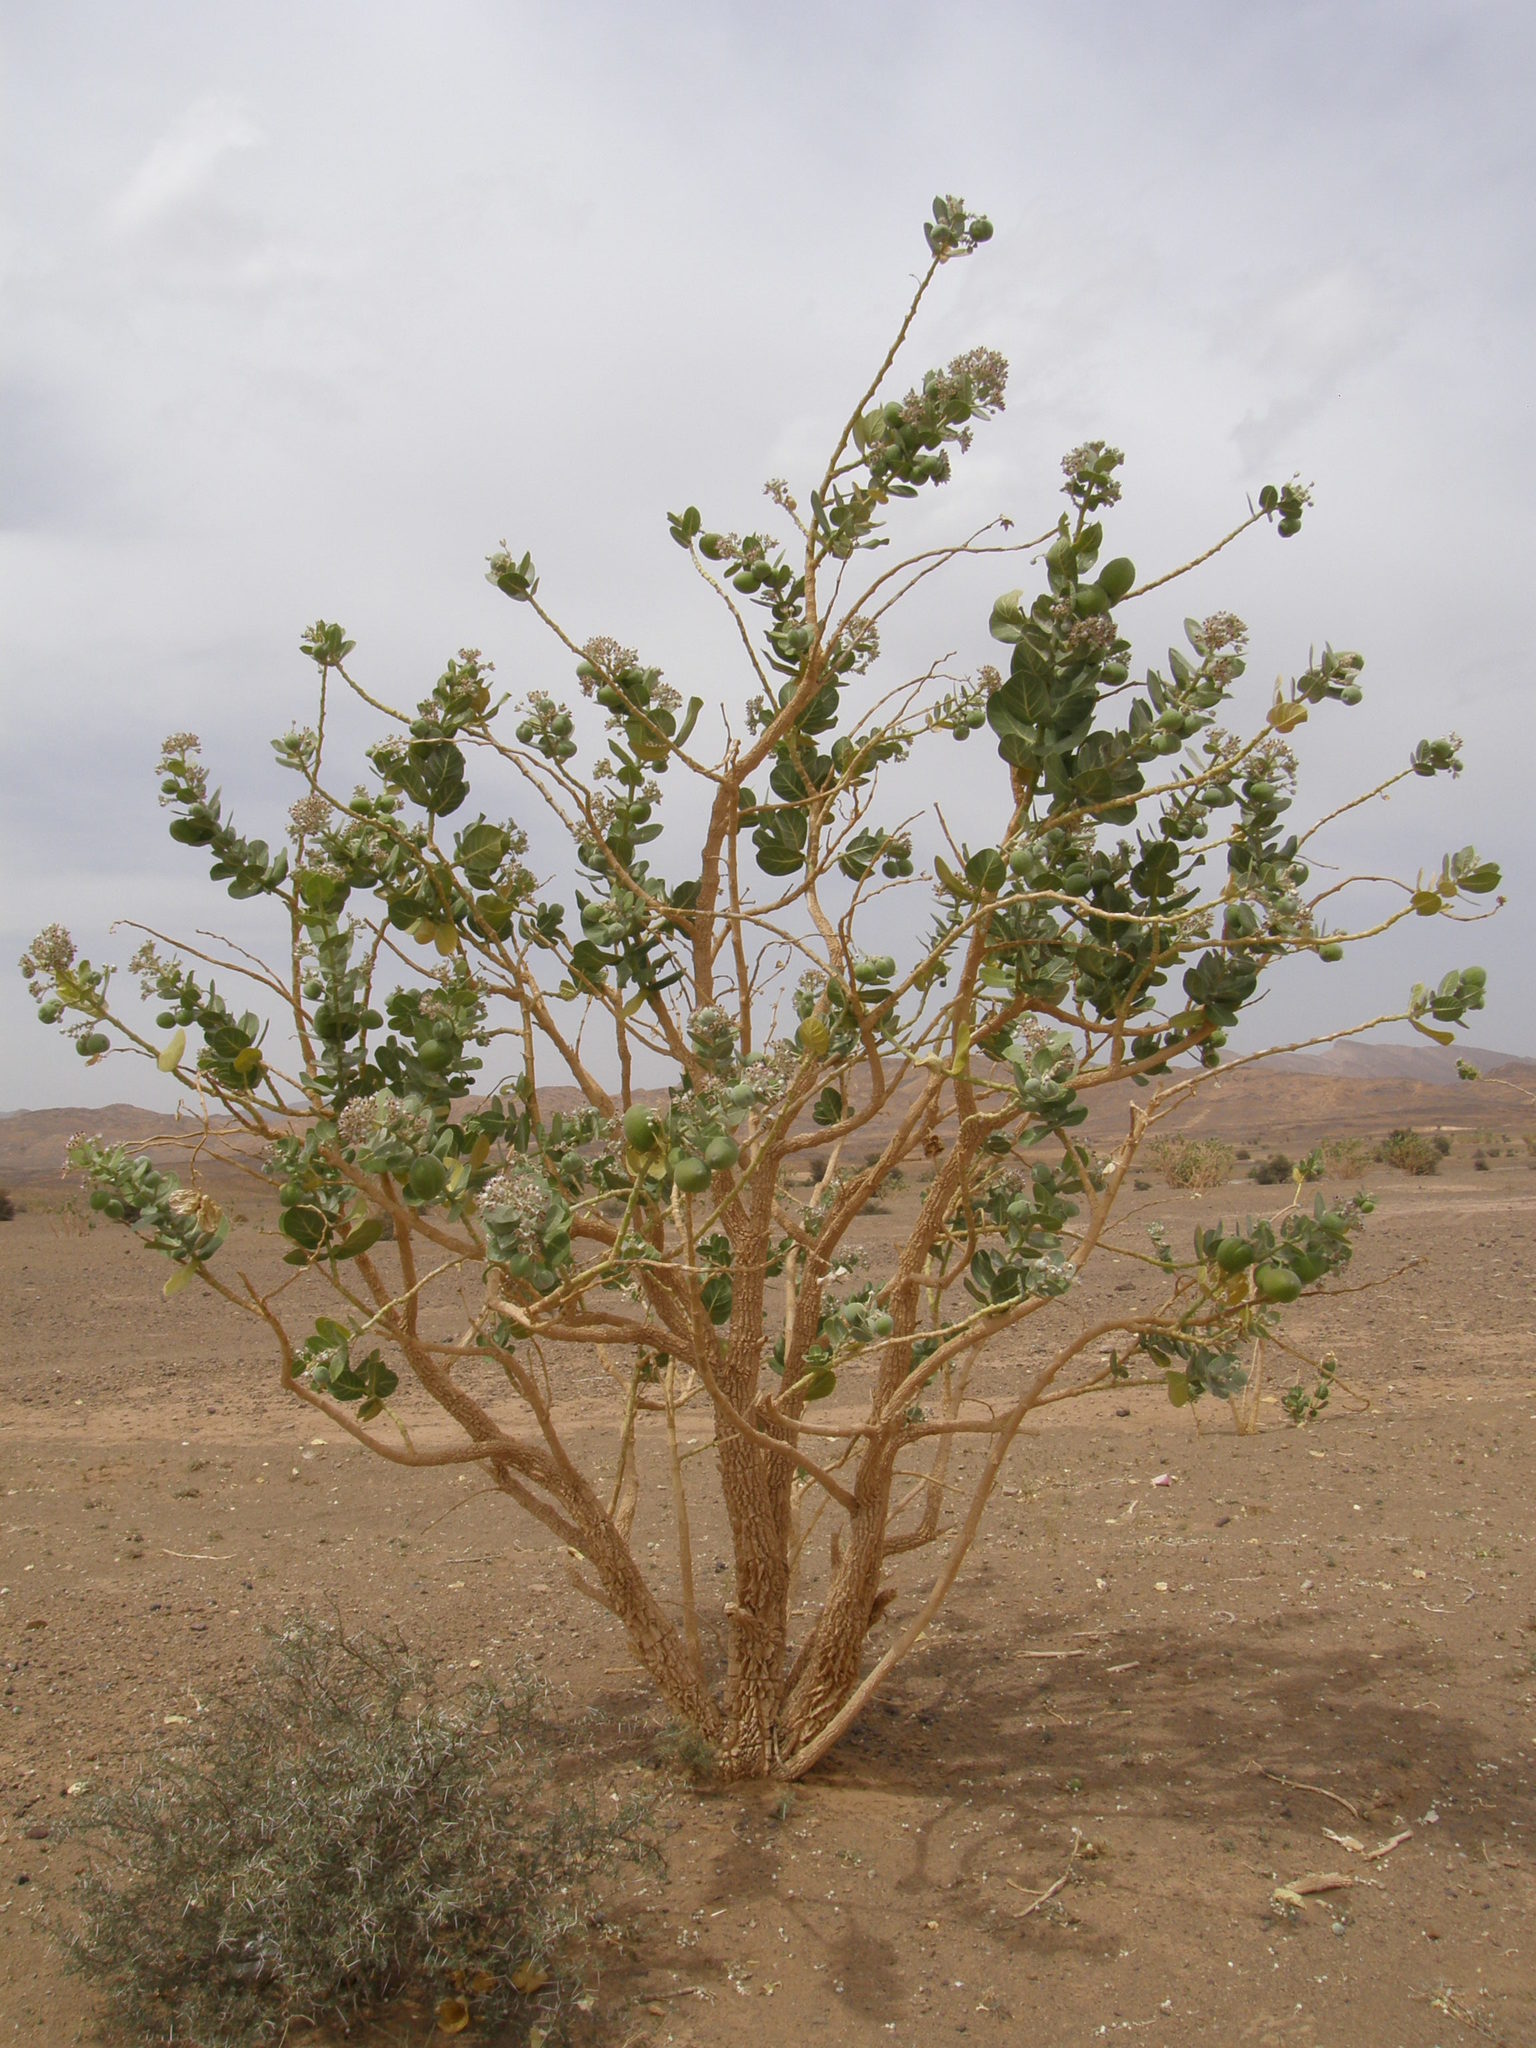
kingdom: Plantae
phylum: Tracheophyta
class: Magnoliopsida
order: Gentianales
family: Apocynaceae
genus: Calotropis
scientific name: Calotropis procera
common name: Roostertree
